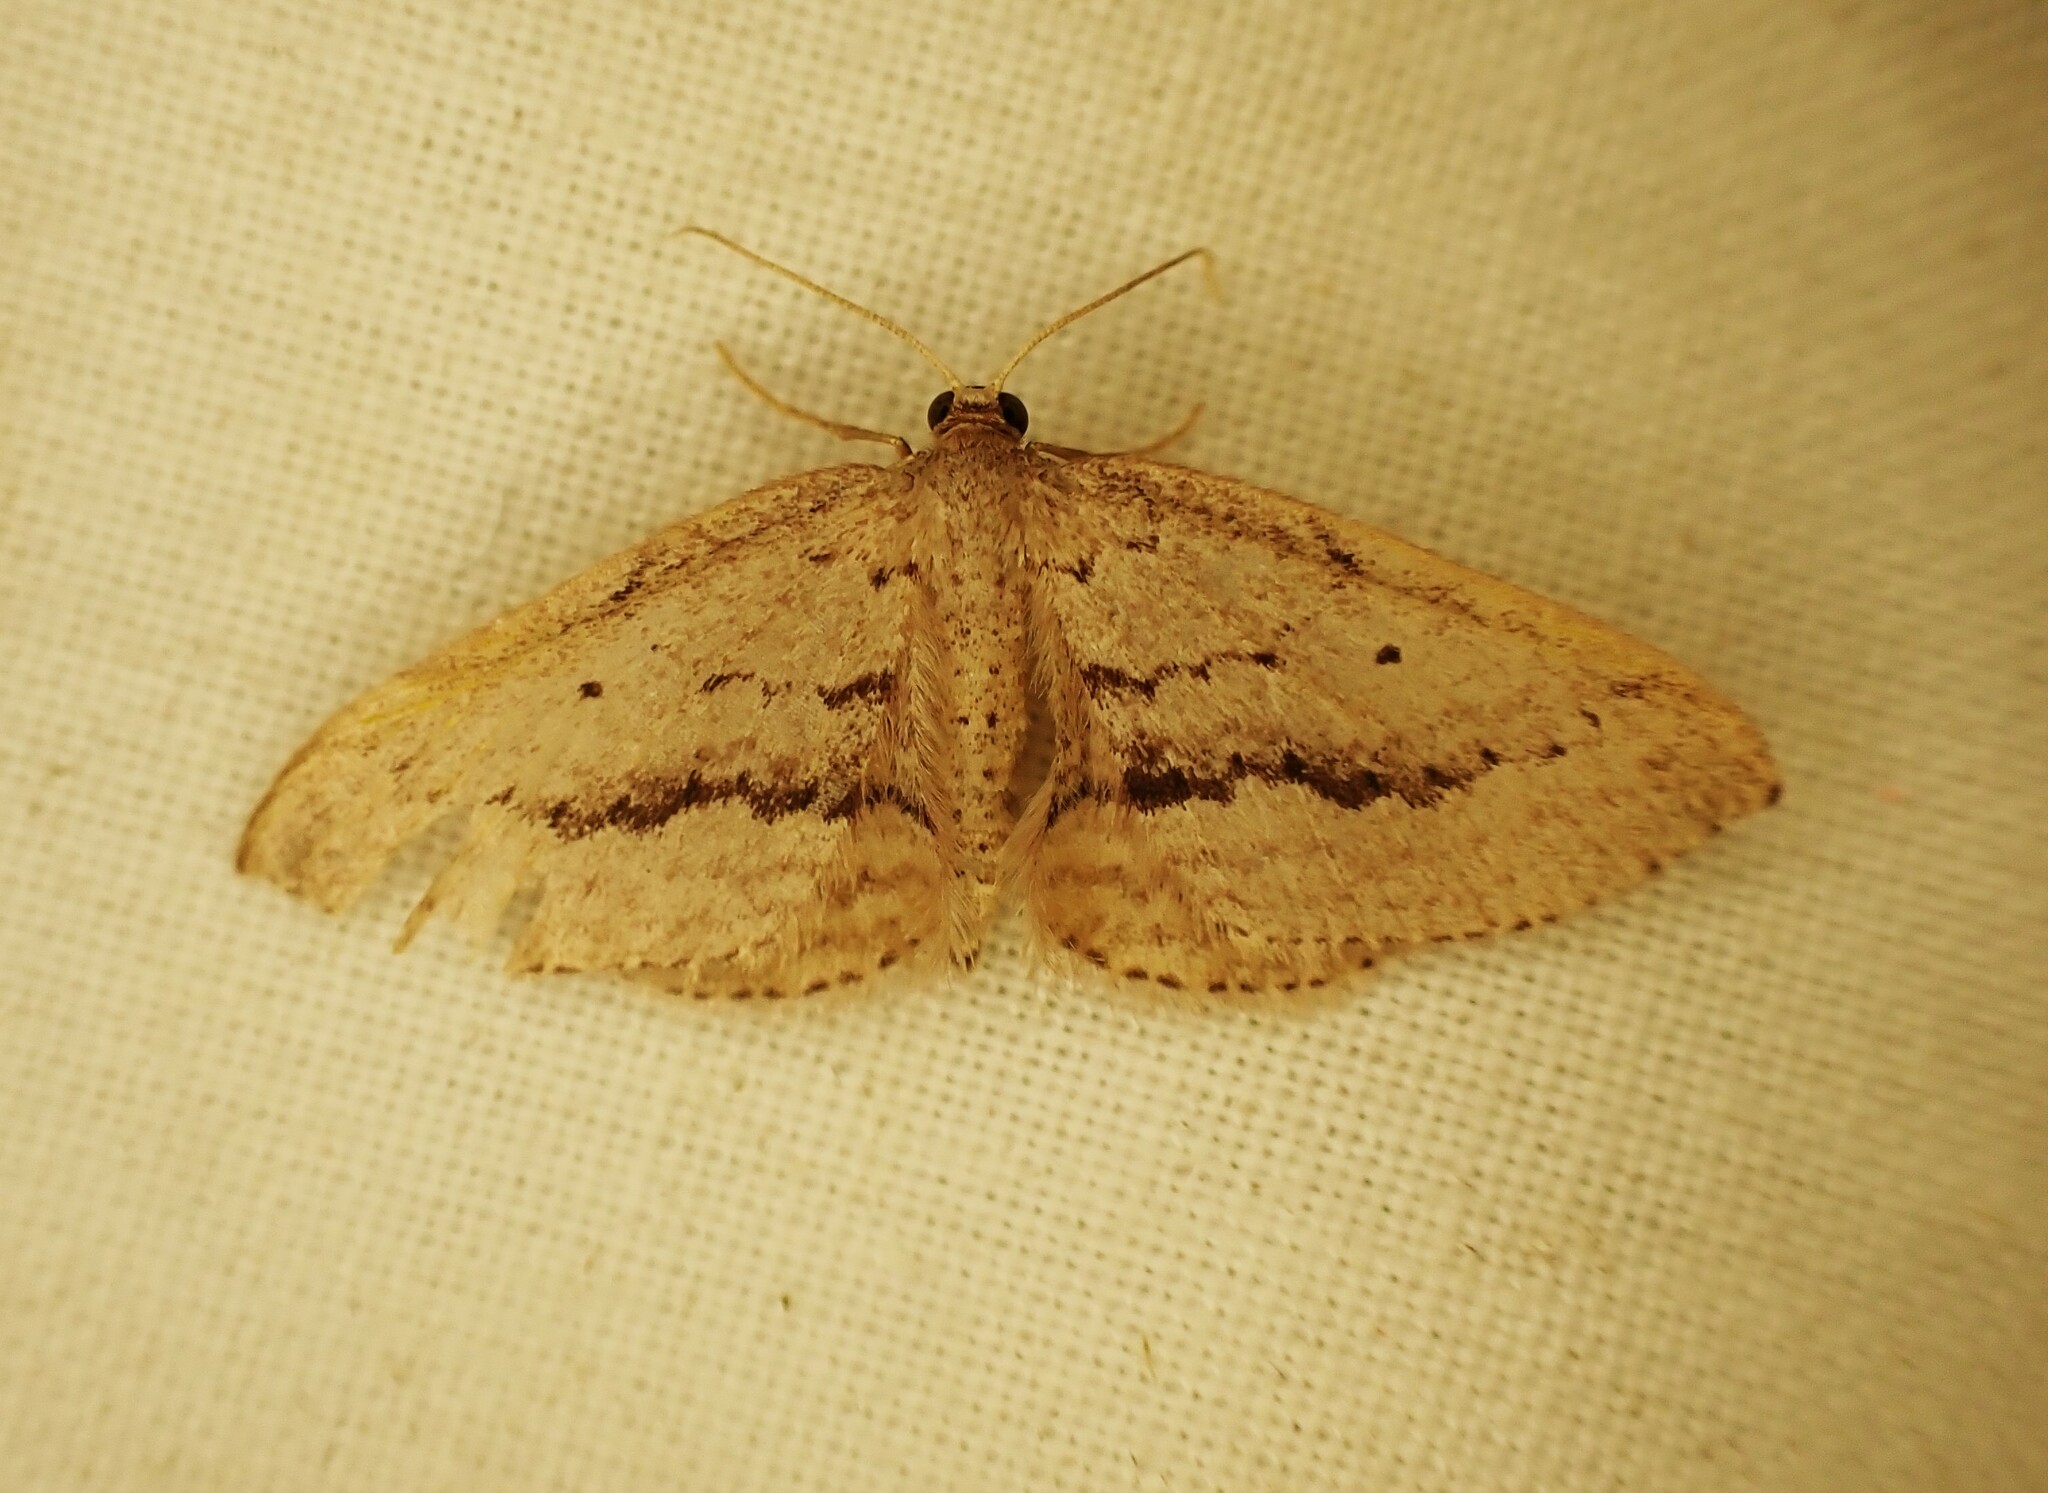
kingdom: Animalia
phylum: Arthropoda
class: Insecta
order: Lepidoptera
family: Geometridae
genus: Poecilasthena
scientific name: Poecilasthena schistaria
